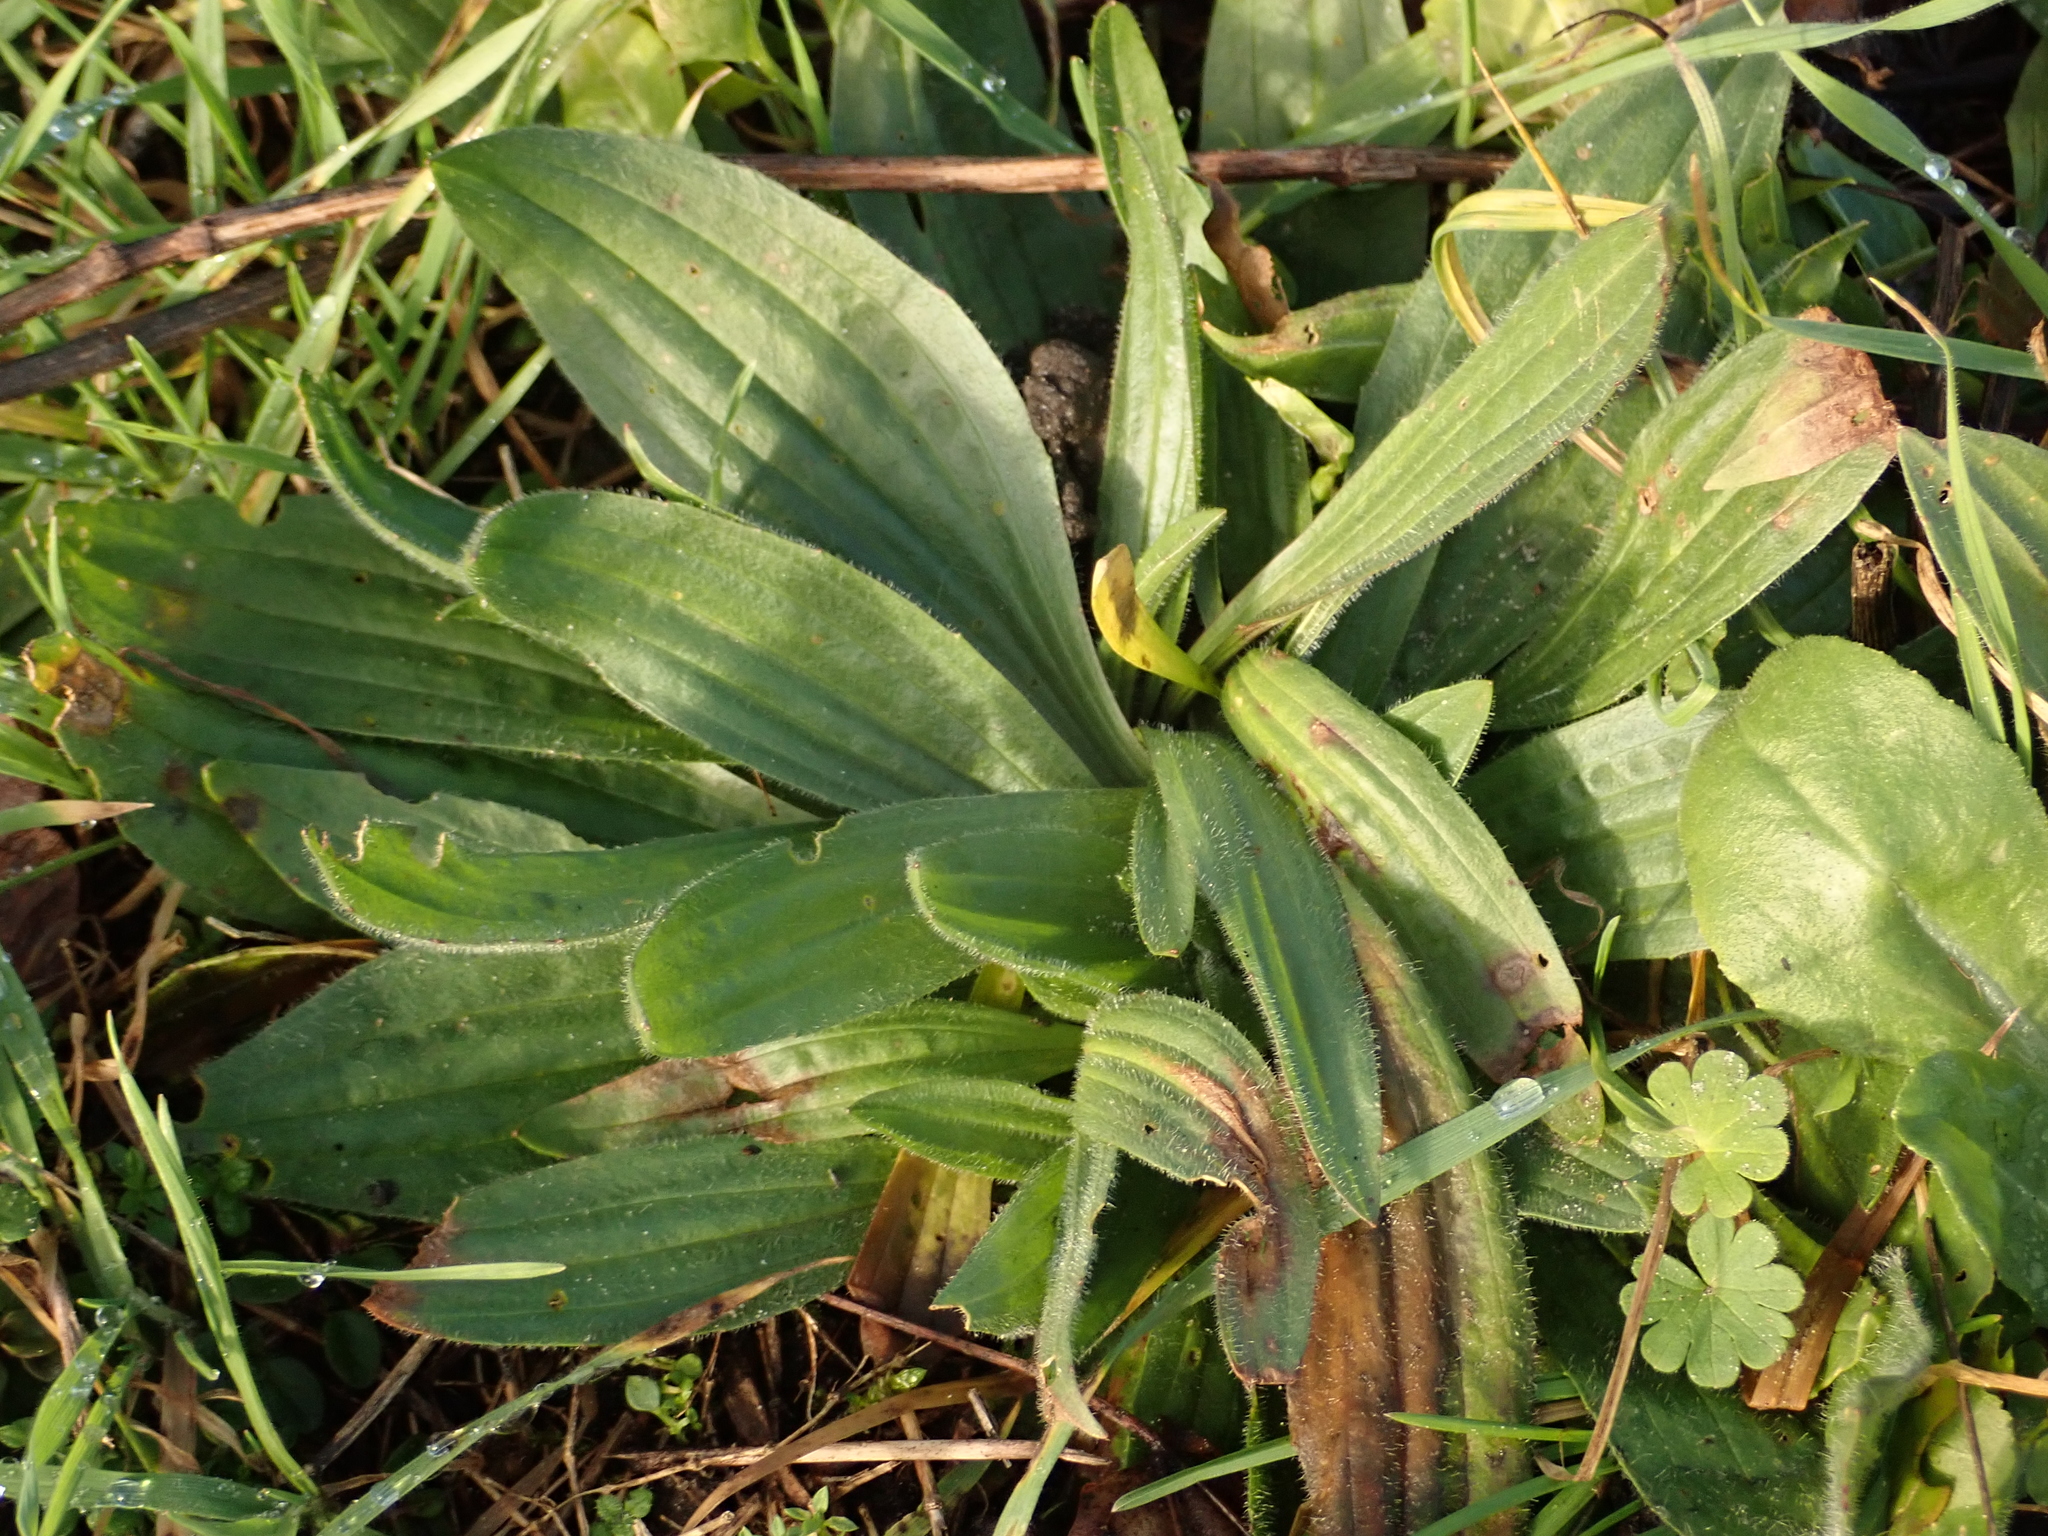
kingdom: Plantae
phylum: Tracheophyta
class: Magnoliopsida
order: Lamiales
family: Plantaginaceae
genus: Plantago
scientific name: Plantago lanceolata
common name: Ribwort plantain
